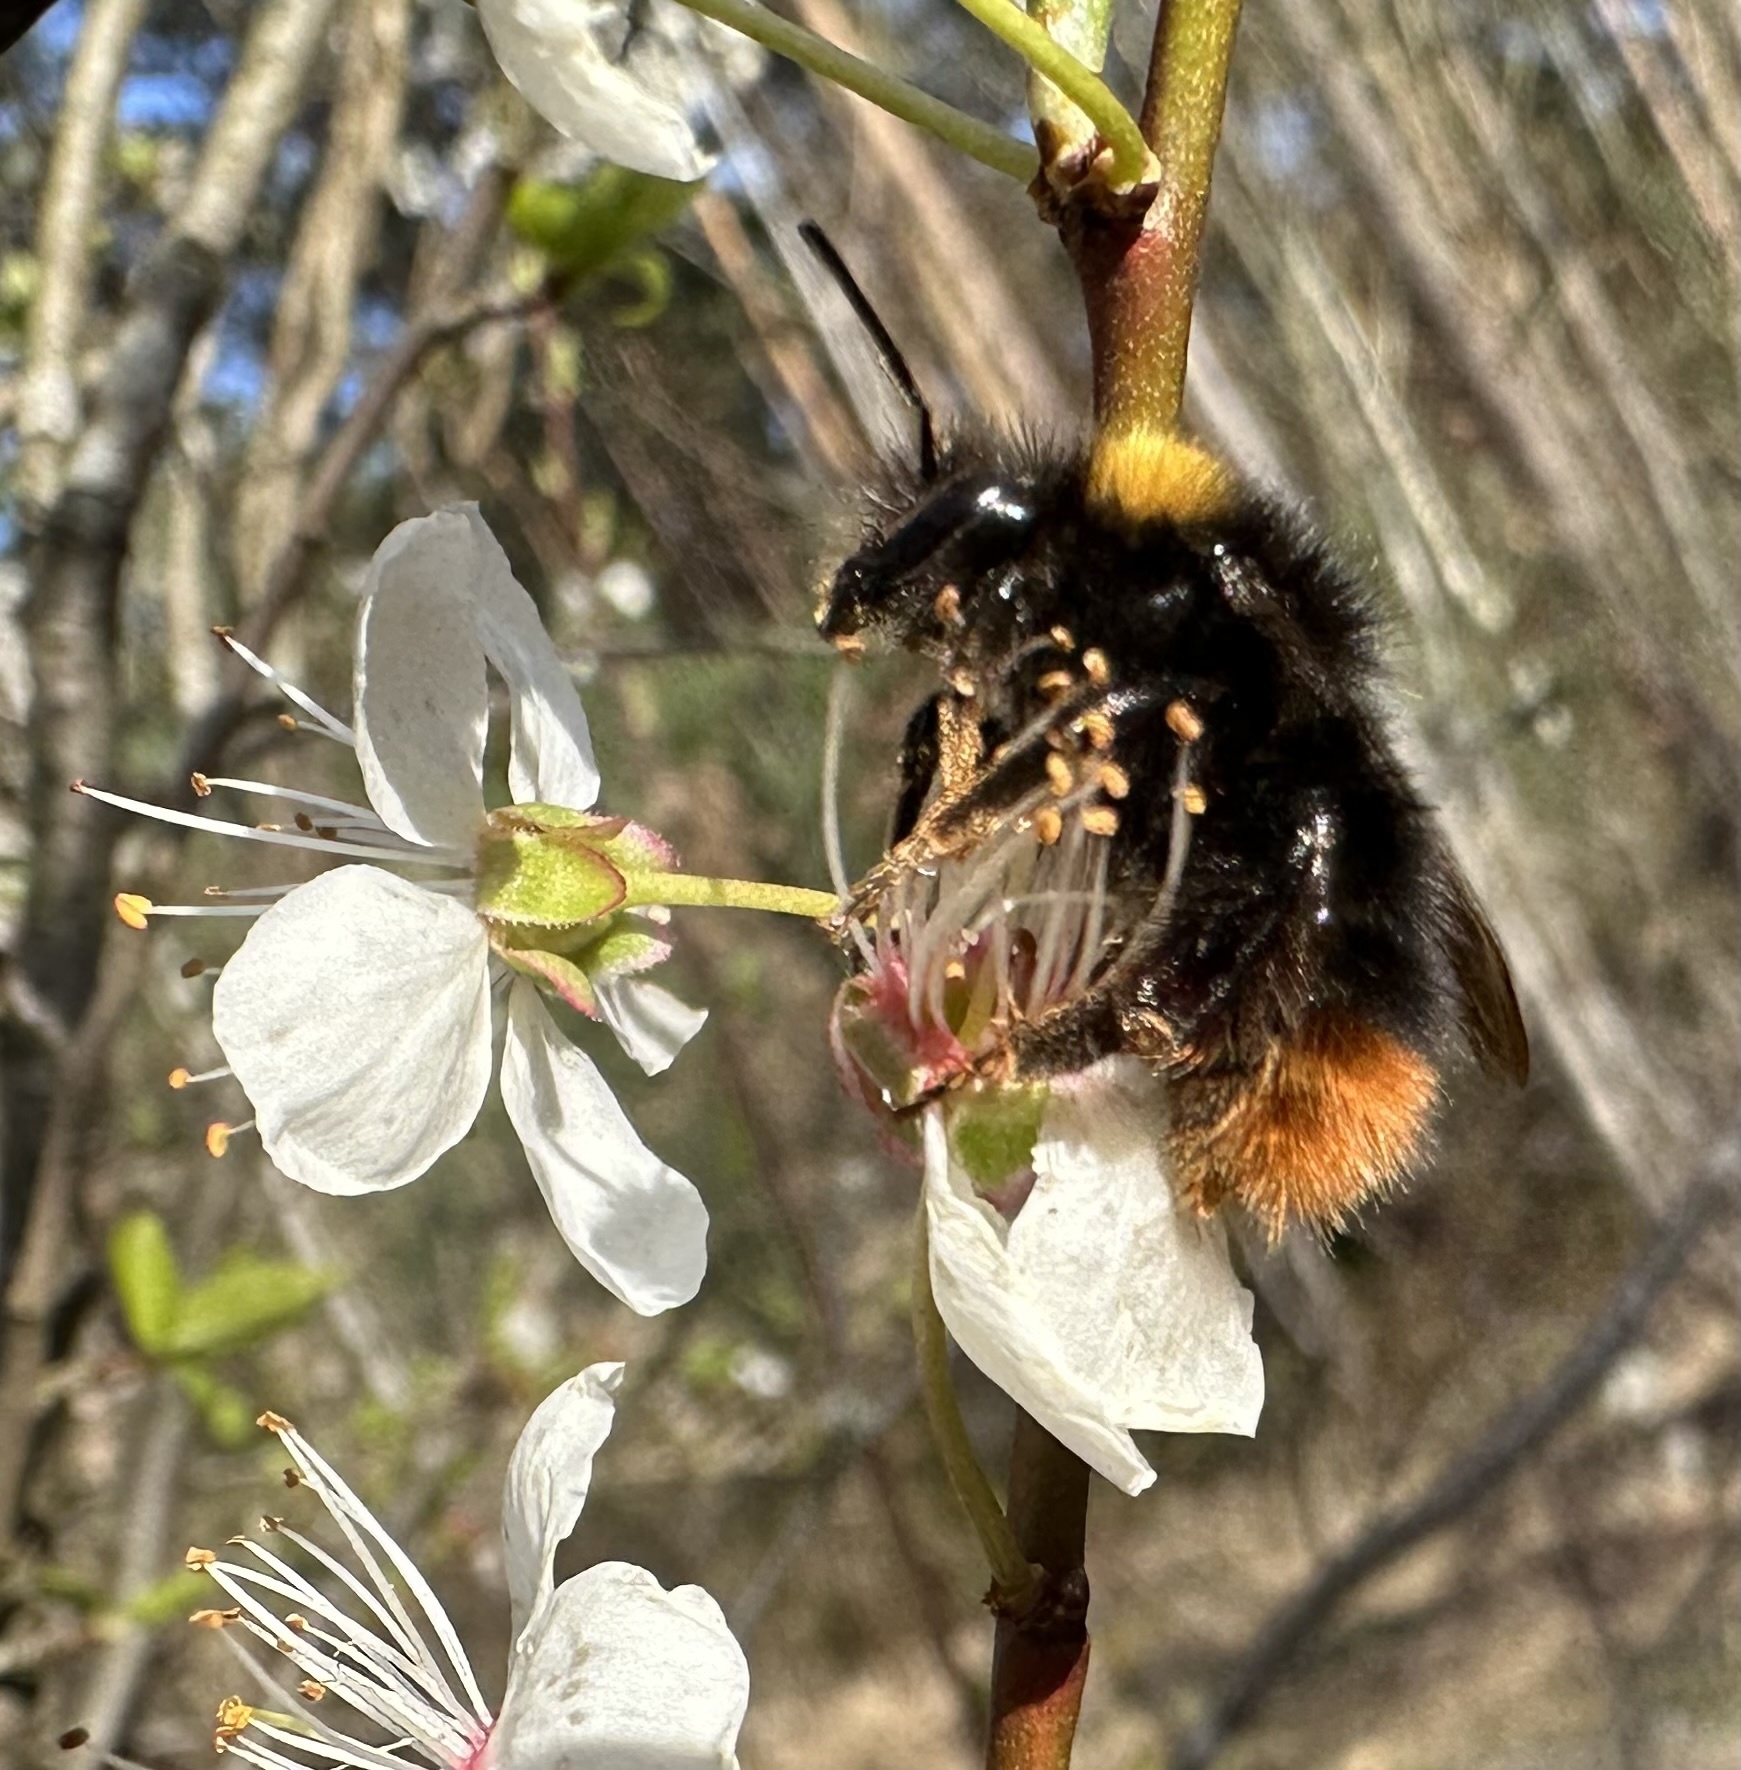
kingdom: Animalia
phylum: Arthropoda
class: Insecta
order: Hymenoptera
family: Apidae
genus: Bombus
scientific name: Bombus pratorum
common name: Early humble-bee
